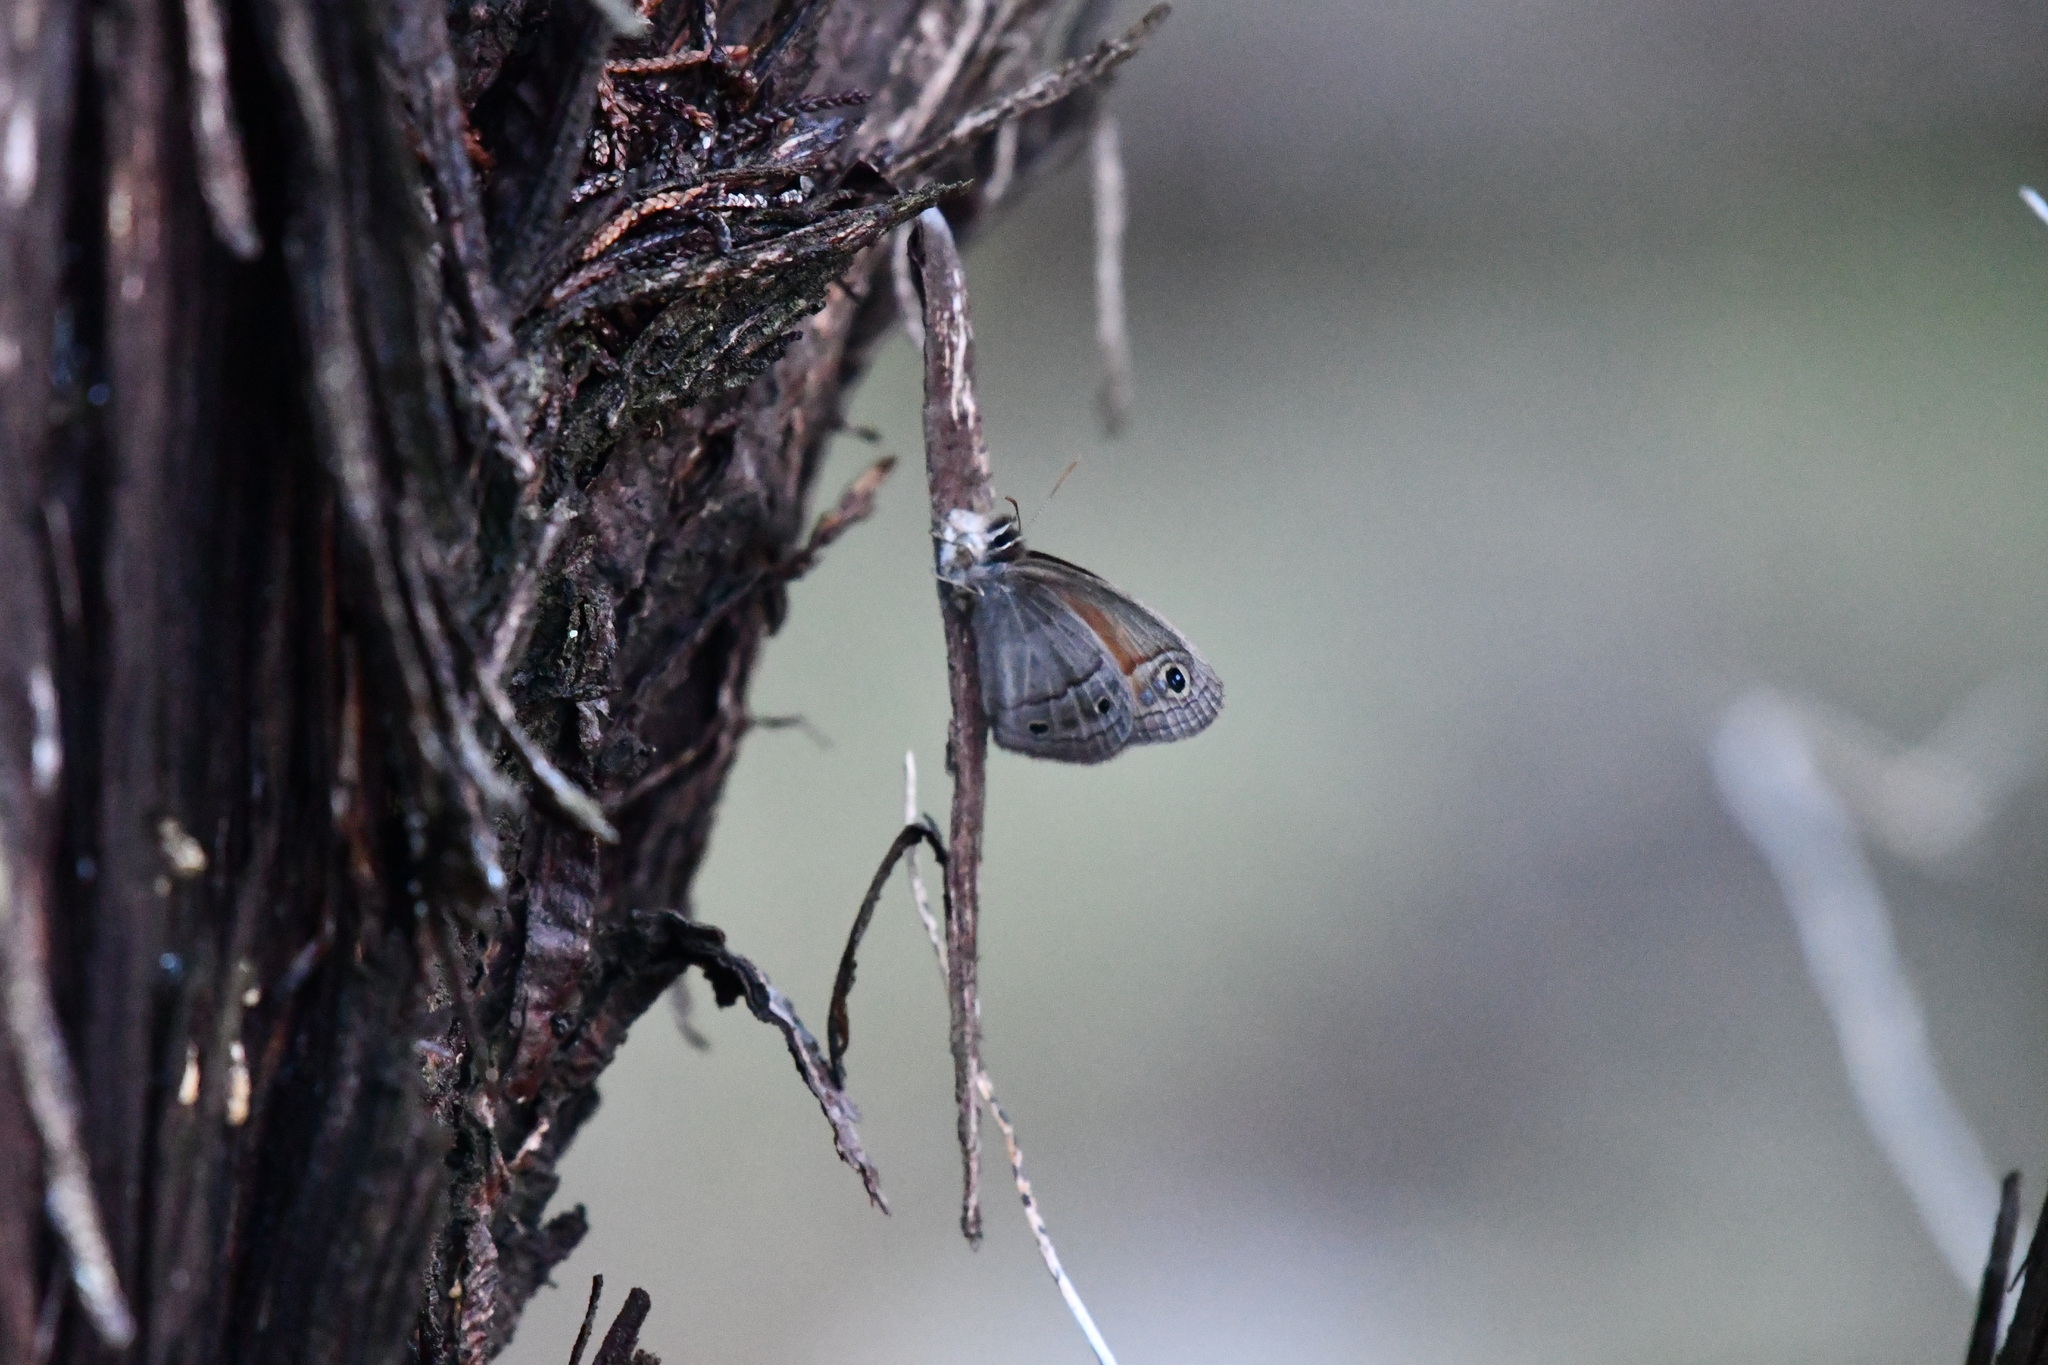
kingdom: Animalia
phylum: Arthropoda
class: Insecta
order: Lepidoptera
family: Nymphalidae
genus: Euptychia
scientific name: Euptychia Cissia rubricata
